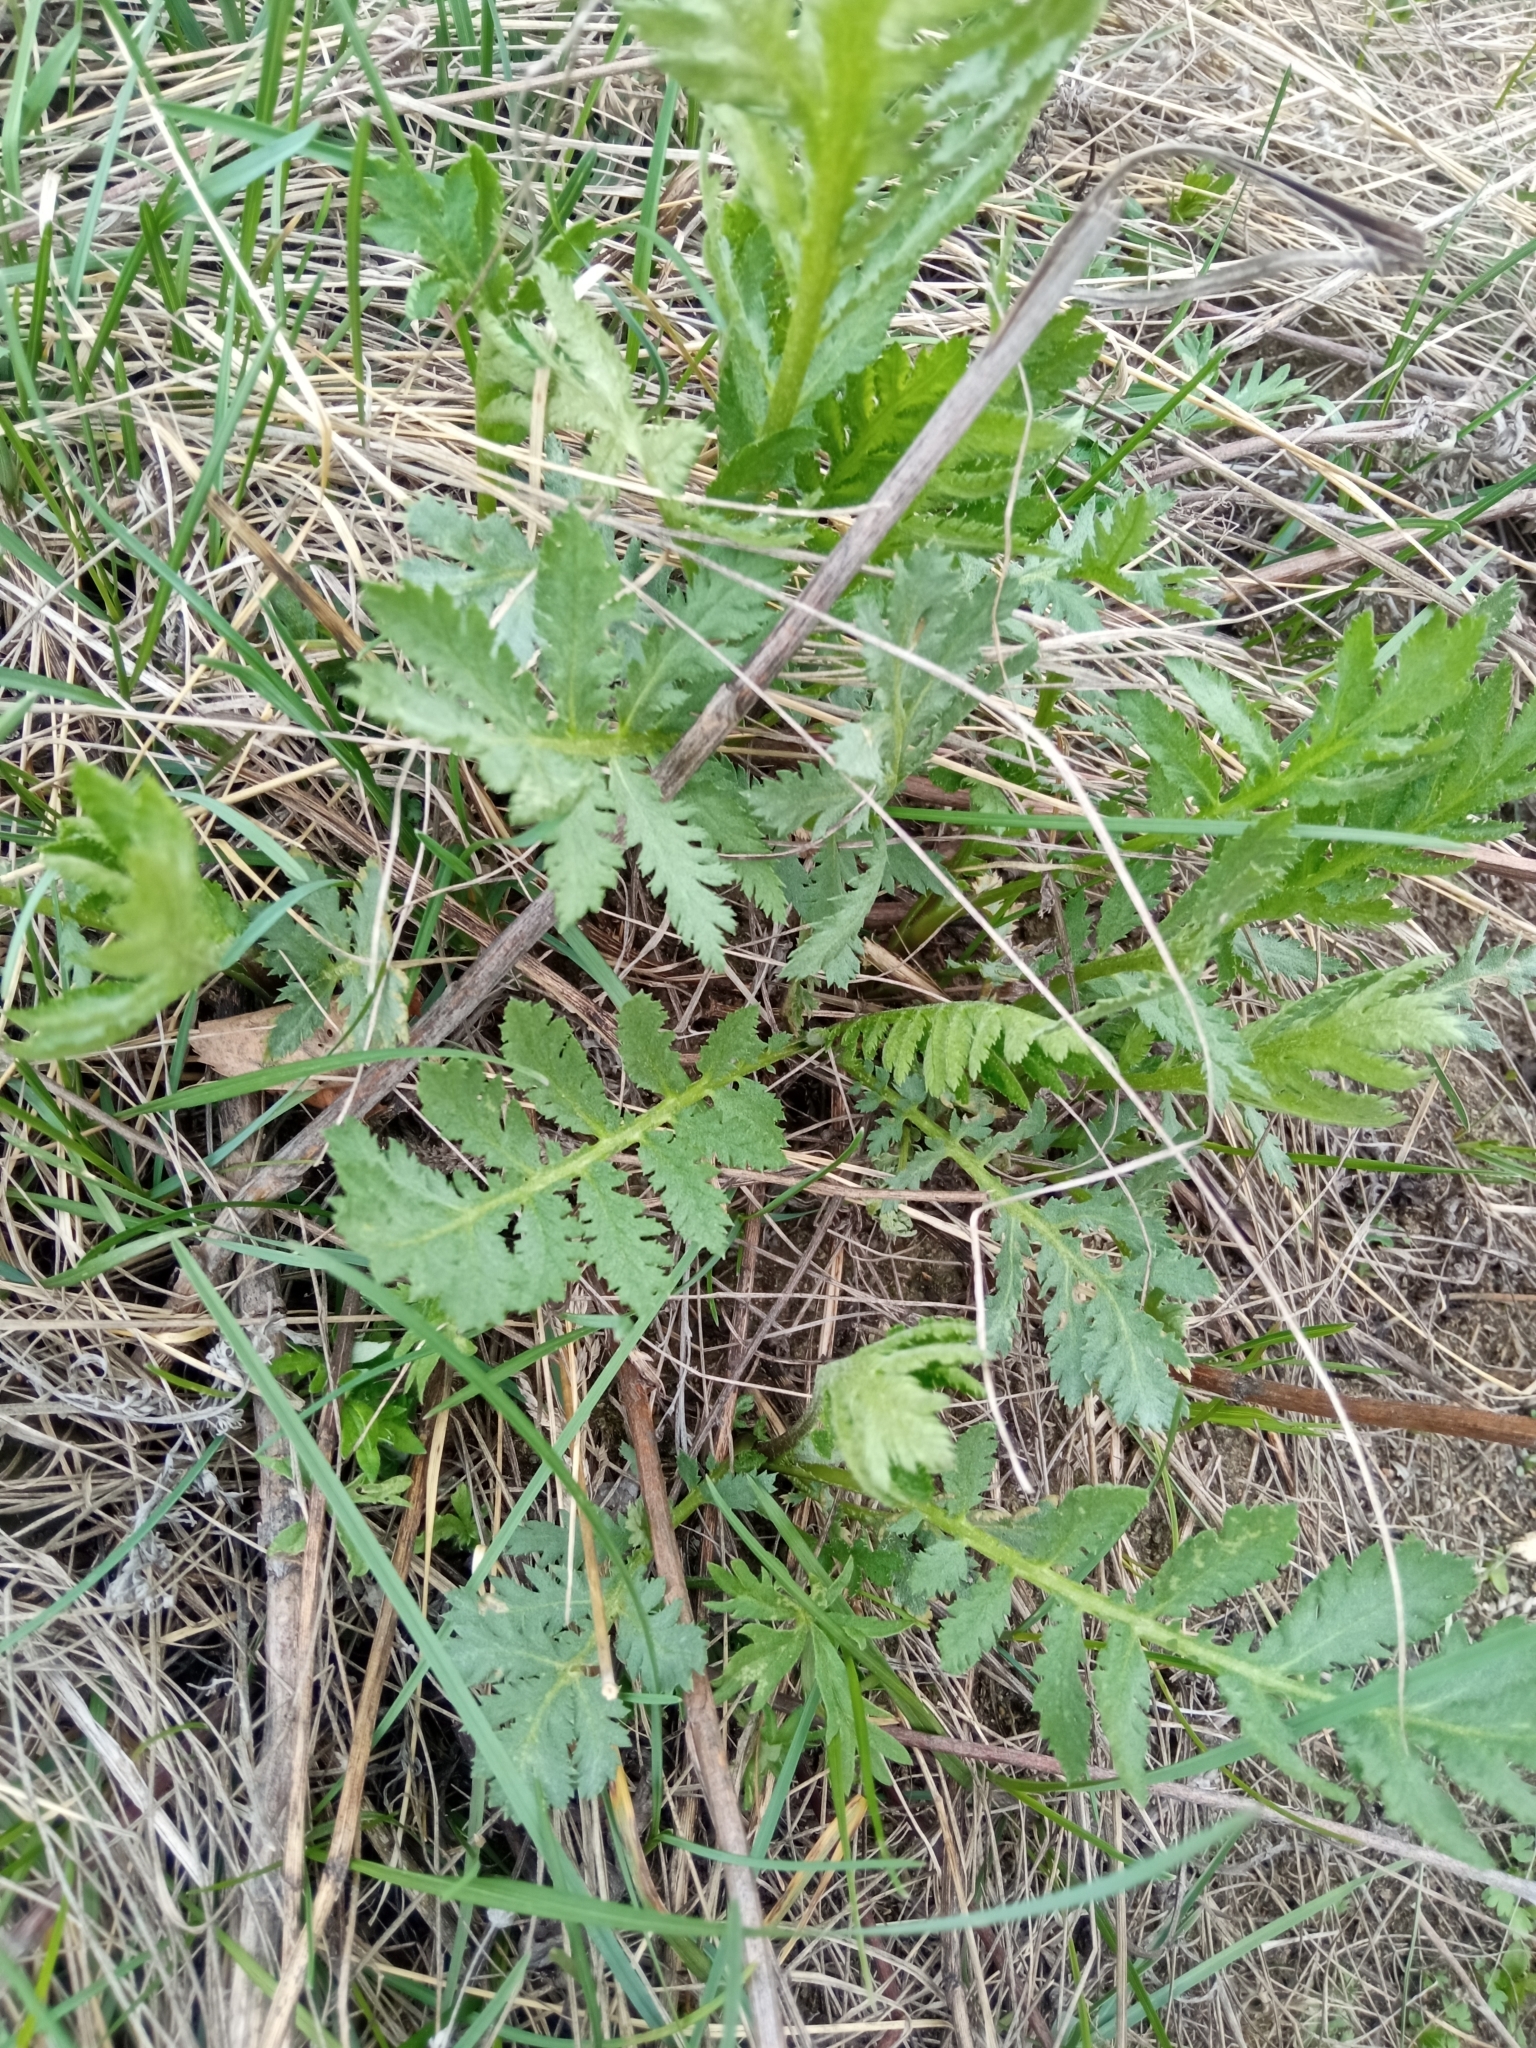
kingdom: Plantae
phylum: Tracheophyta
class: Magnoliopsida
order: Asterales
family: Asteraceae
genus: Tanacetum
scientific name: Tanacetum vulgare
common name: Common tansy
